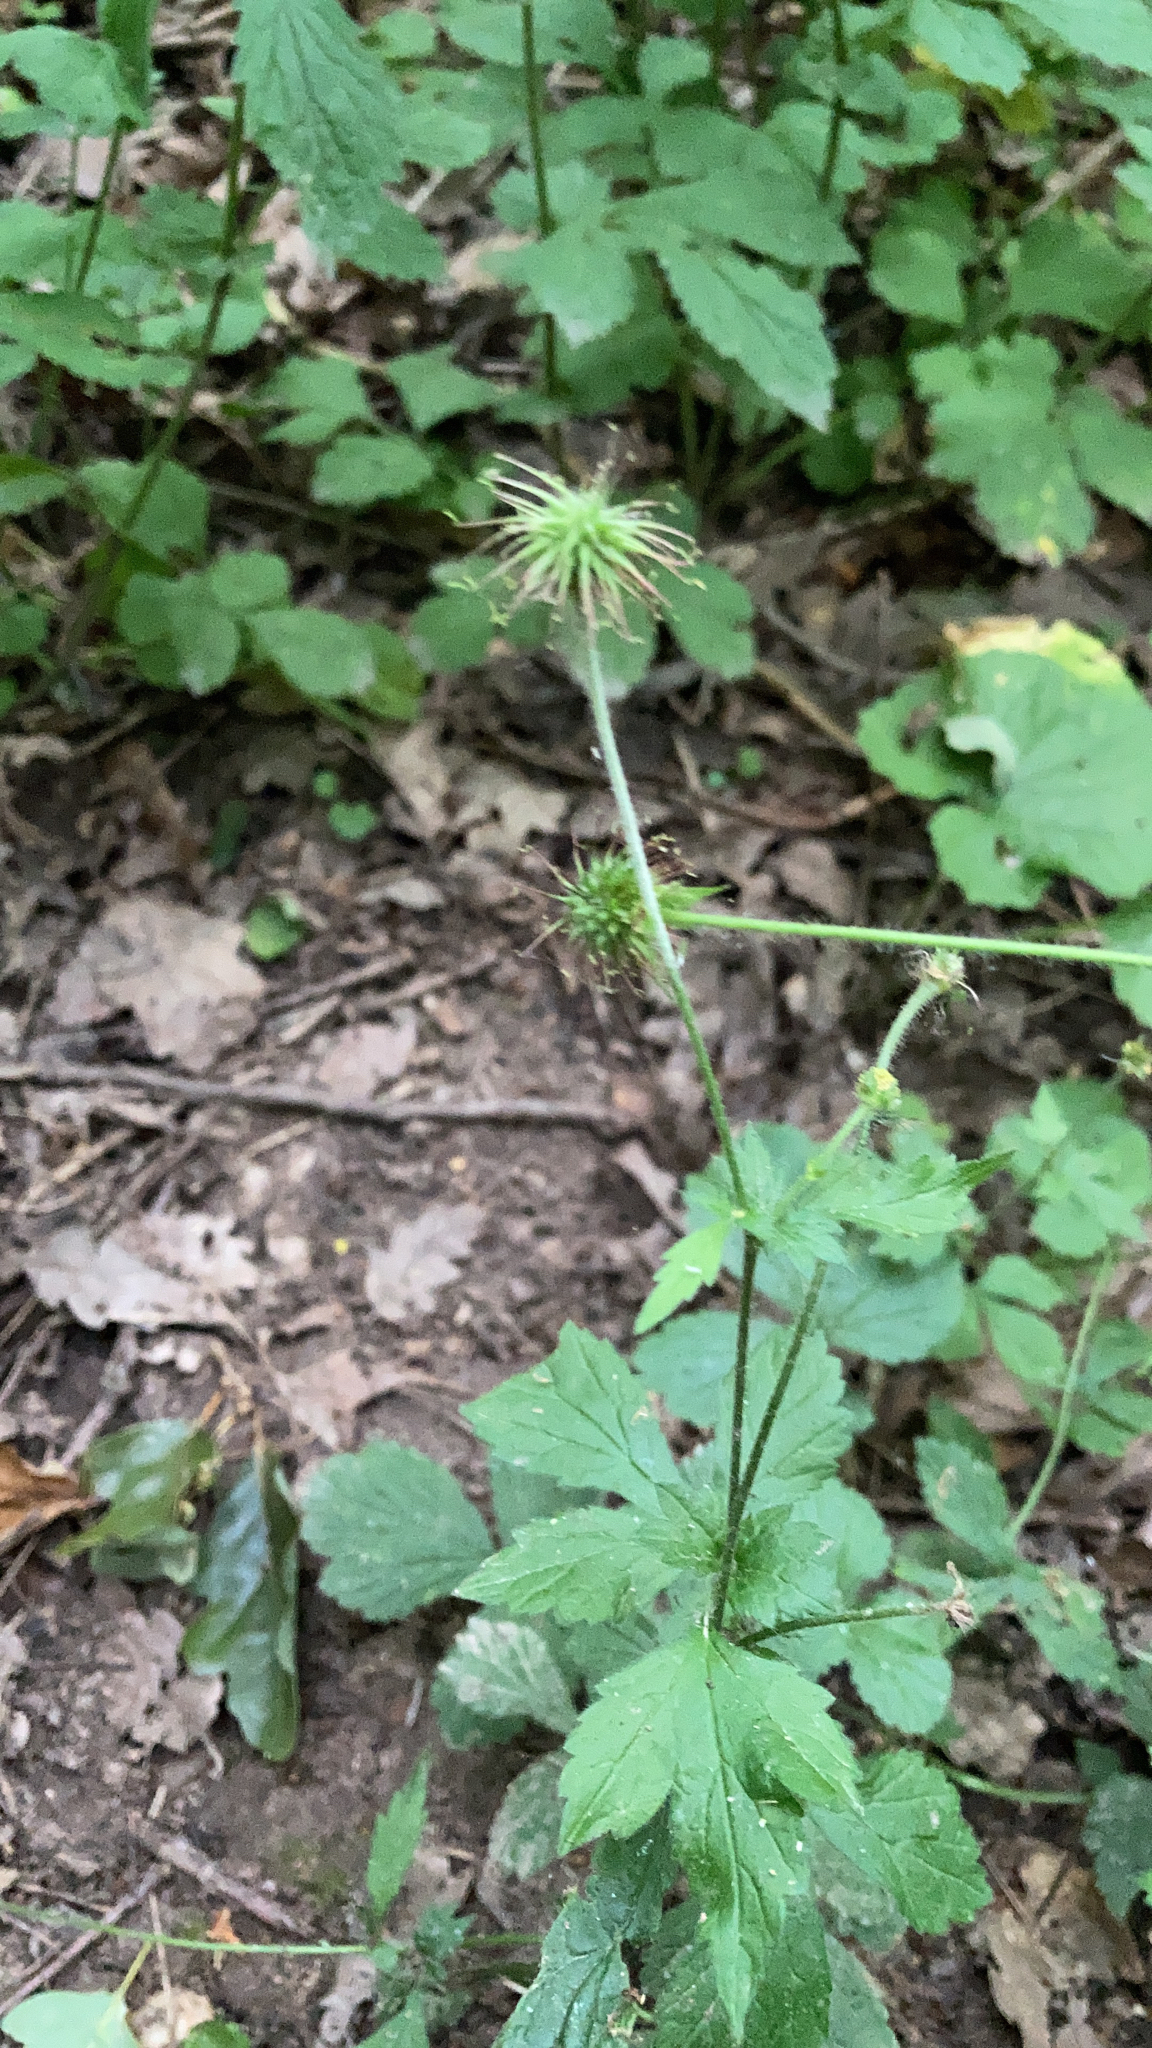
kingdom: Plantae
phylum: Tracheophyta
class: Magnoliopsida
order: Rosales
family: Rosaceae
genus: Geum
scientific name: Geum urbanum
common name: Wood avens
